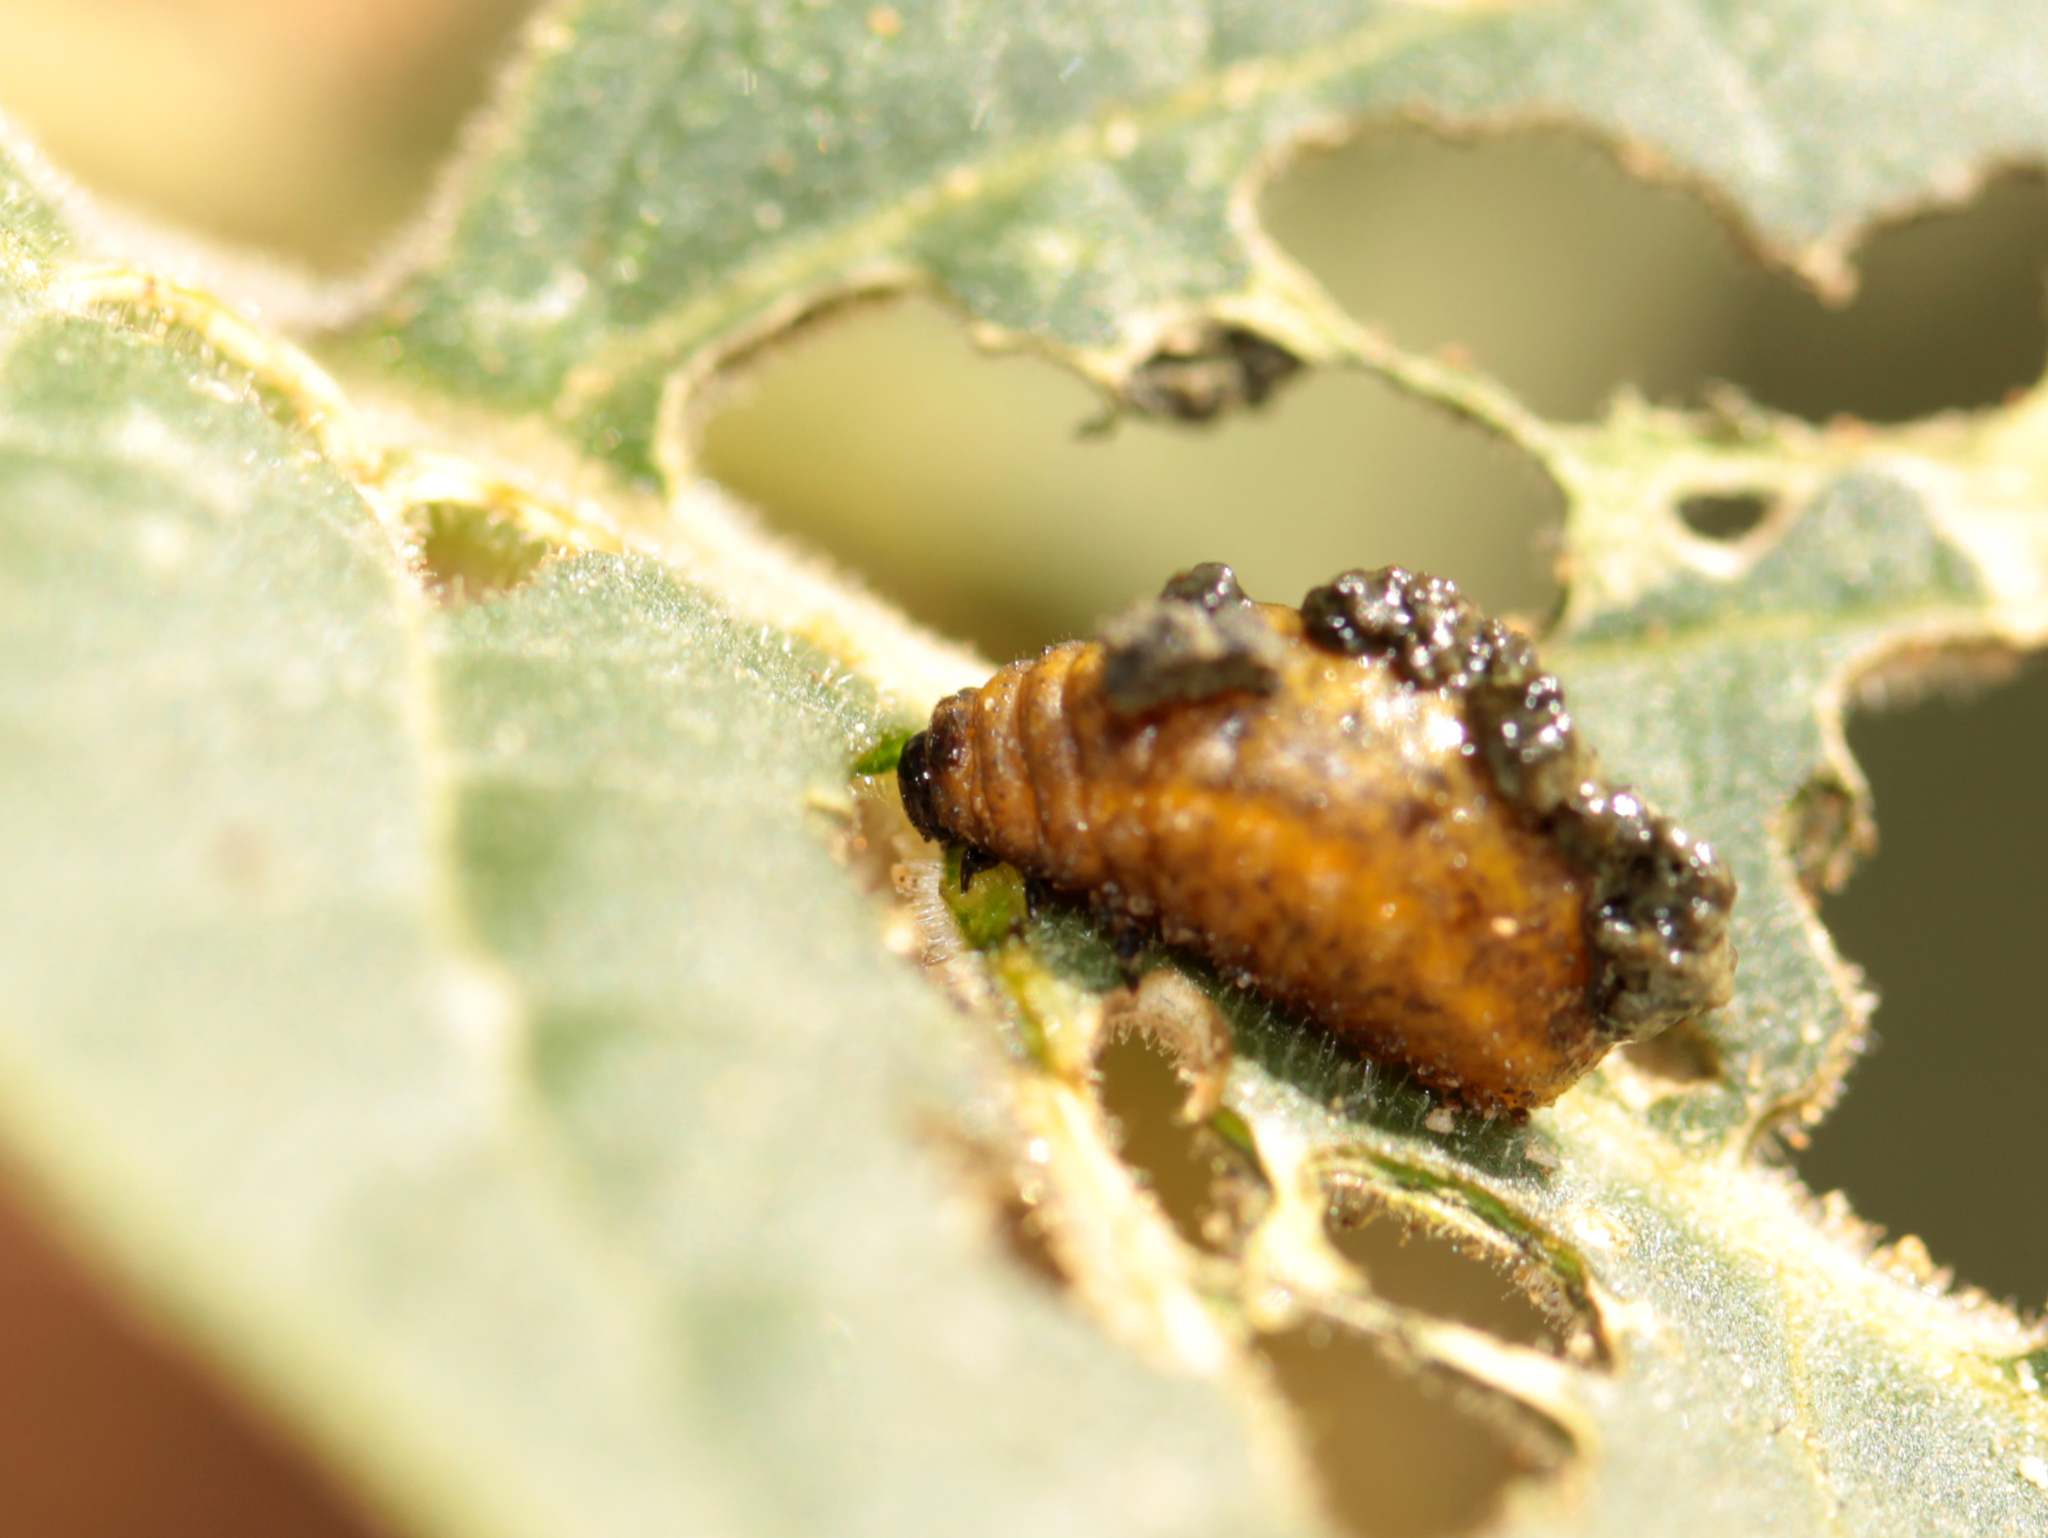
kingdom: Animalia
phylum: Arthropoda
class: Insecta
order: Coleoptera
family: Chrysomelidae
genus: Lema
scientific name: Lema daturaphila
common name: Leaf beetle
